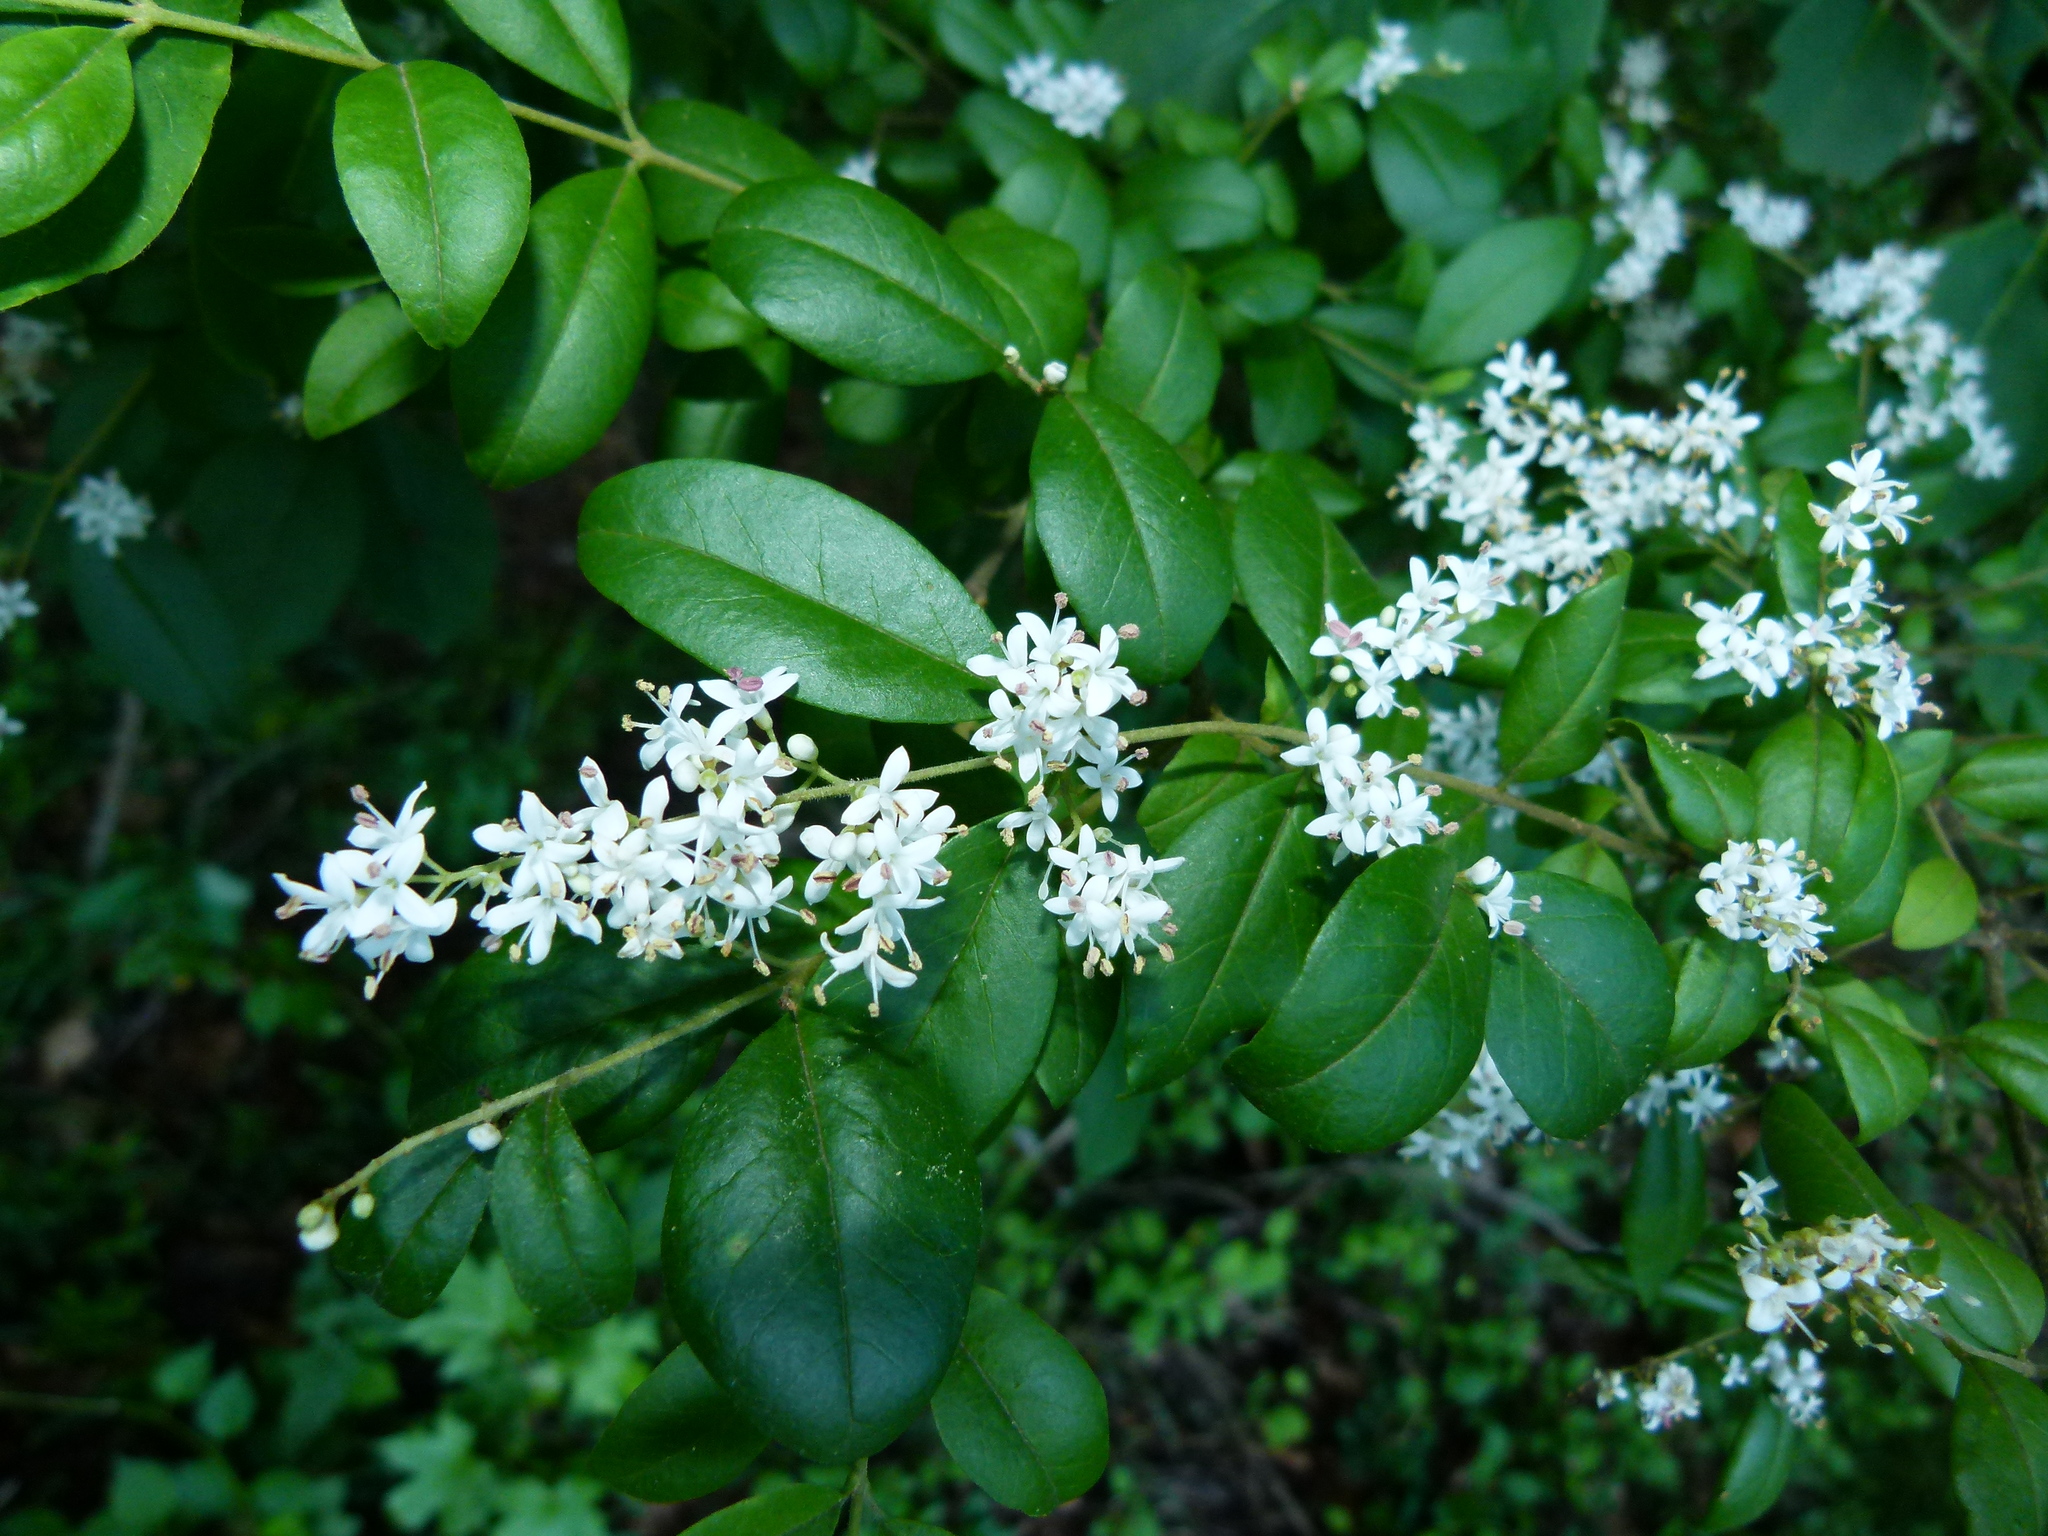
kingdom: Plantae
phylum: Tracheophyta
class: Magnoliopsida
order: Lamiales
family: Oleaceae
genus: Ligustrum
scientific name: Ligustrum sinense
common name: Chinese privet
